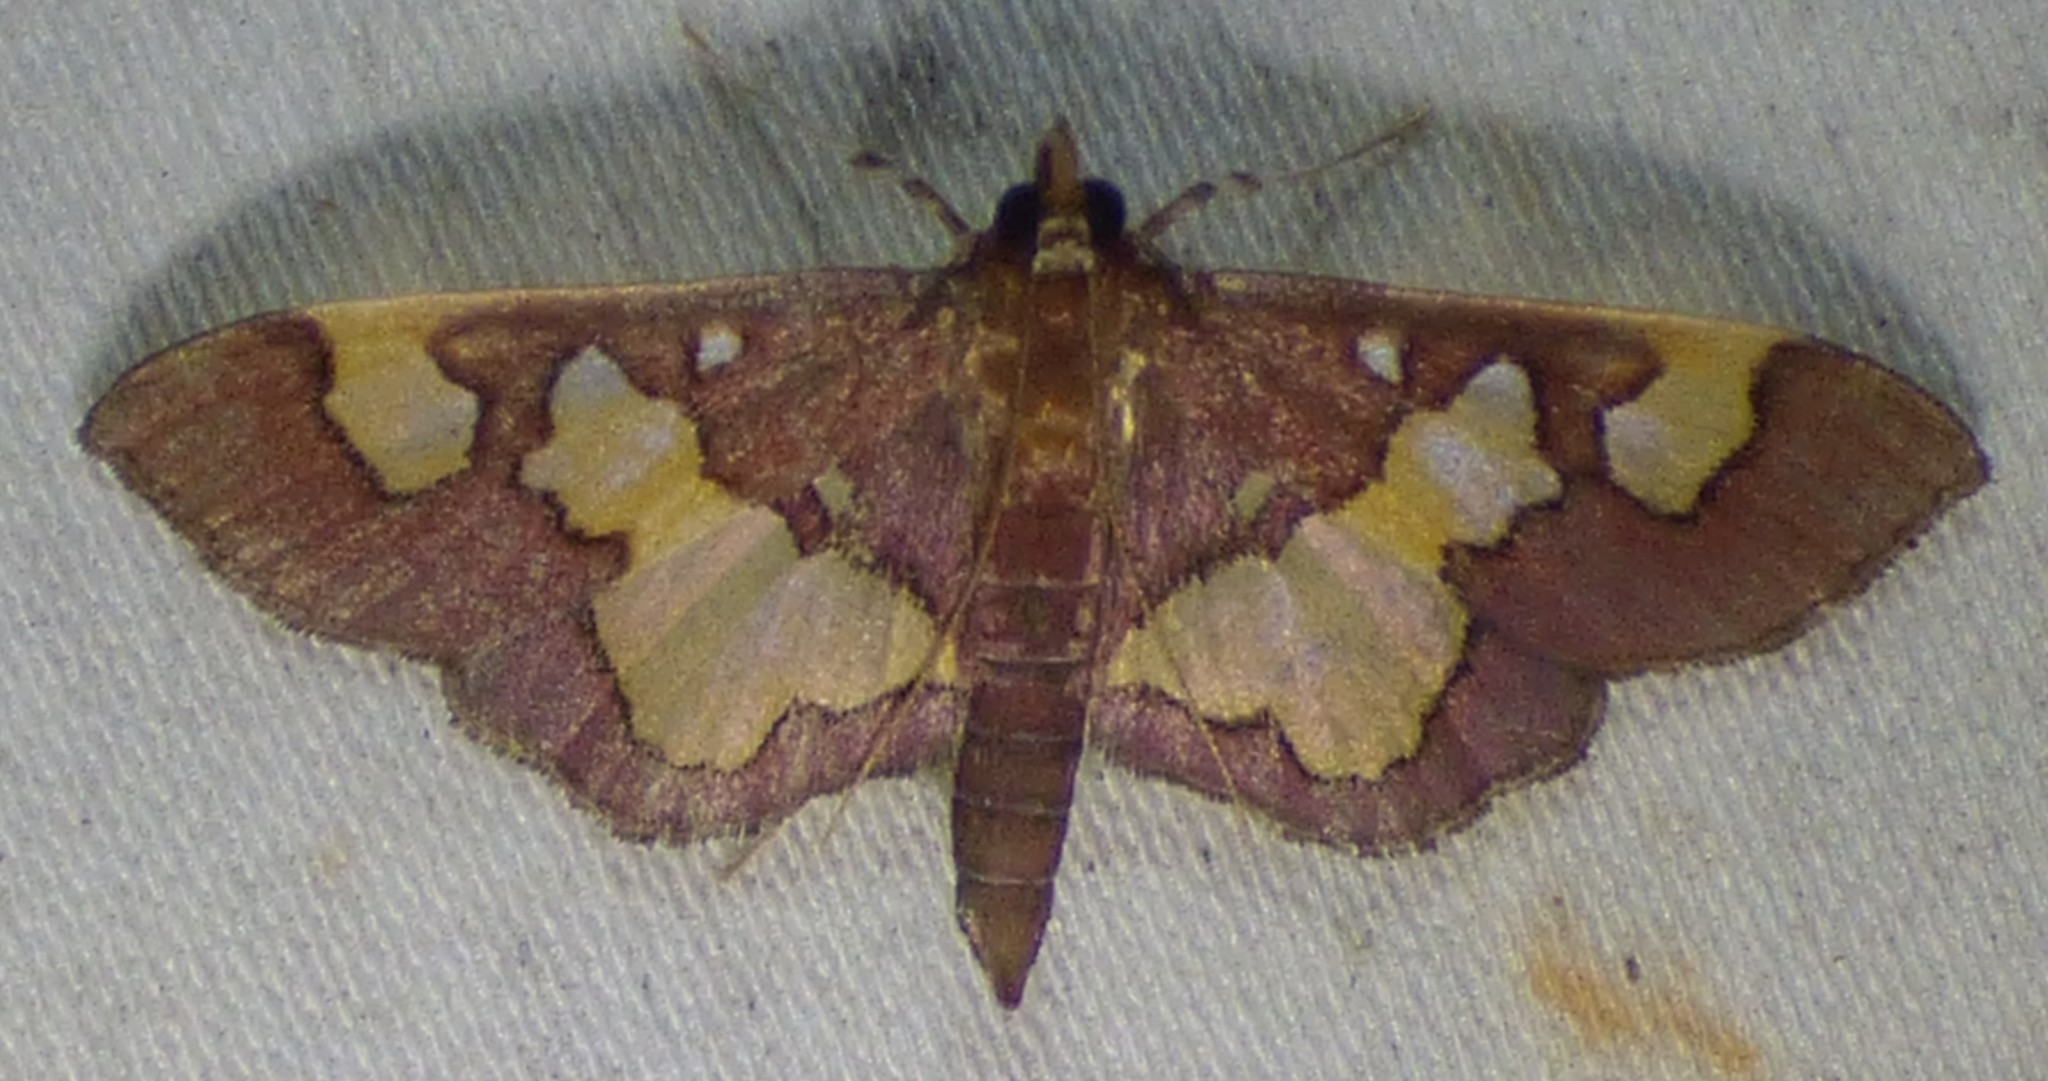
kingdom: Animalia
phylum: Arthropoda
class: Insecta
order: Lepidoptera
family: Crambidae
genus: Colomychus
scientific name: Colomychus talis
